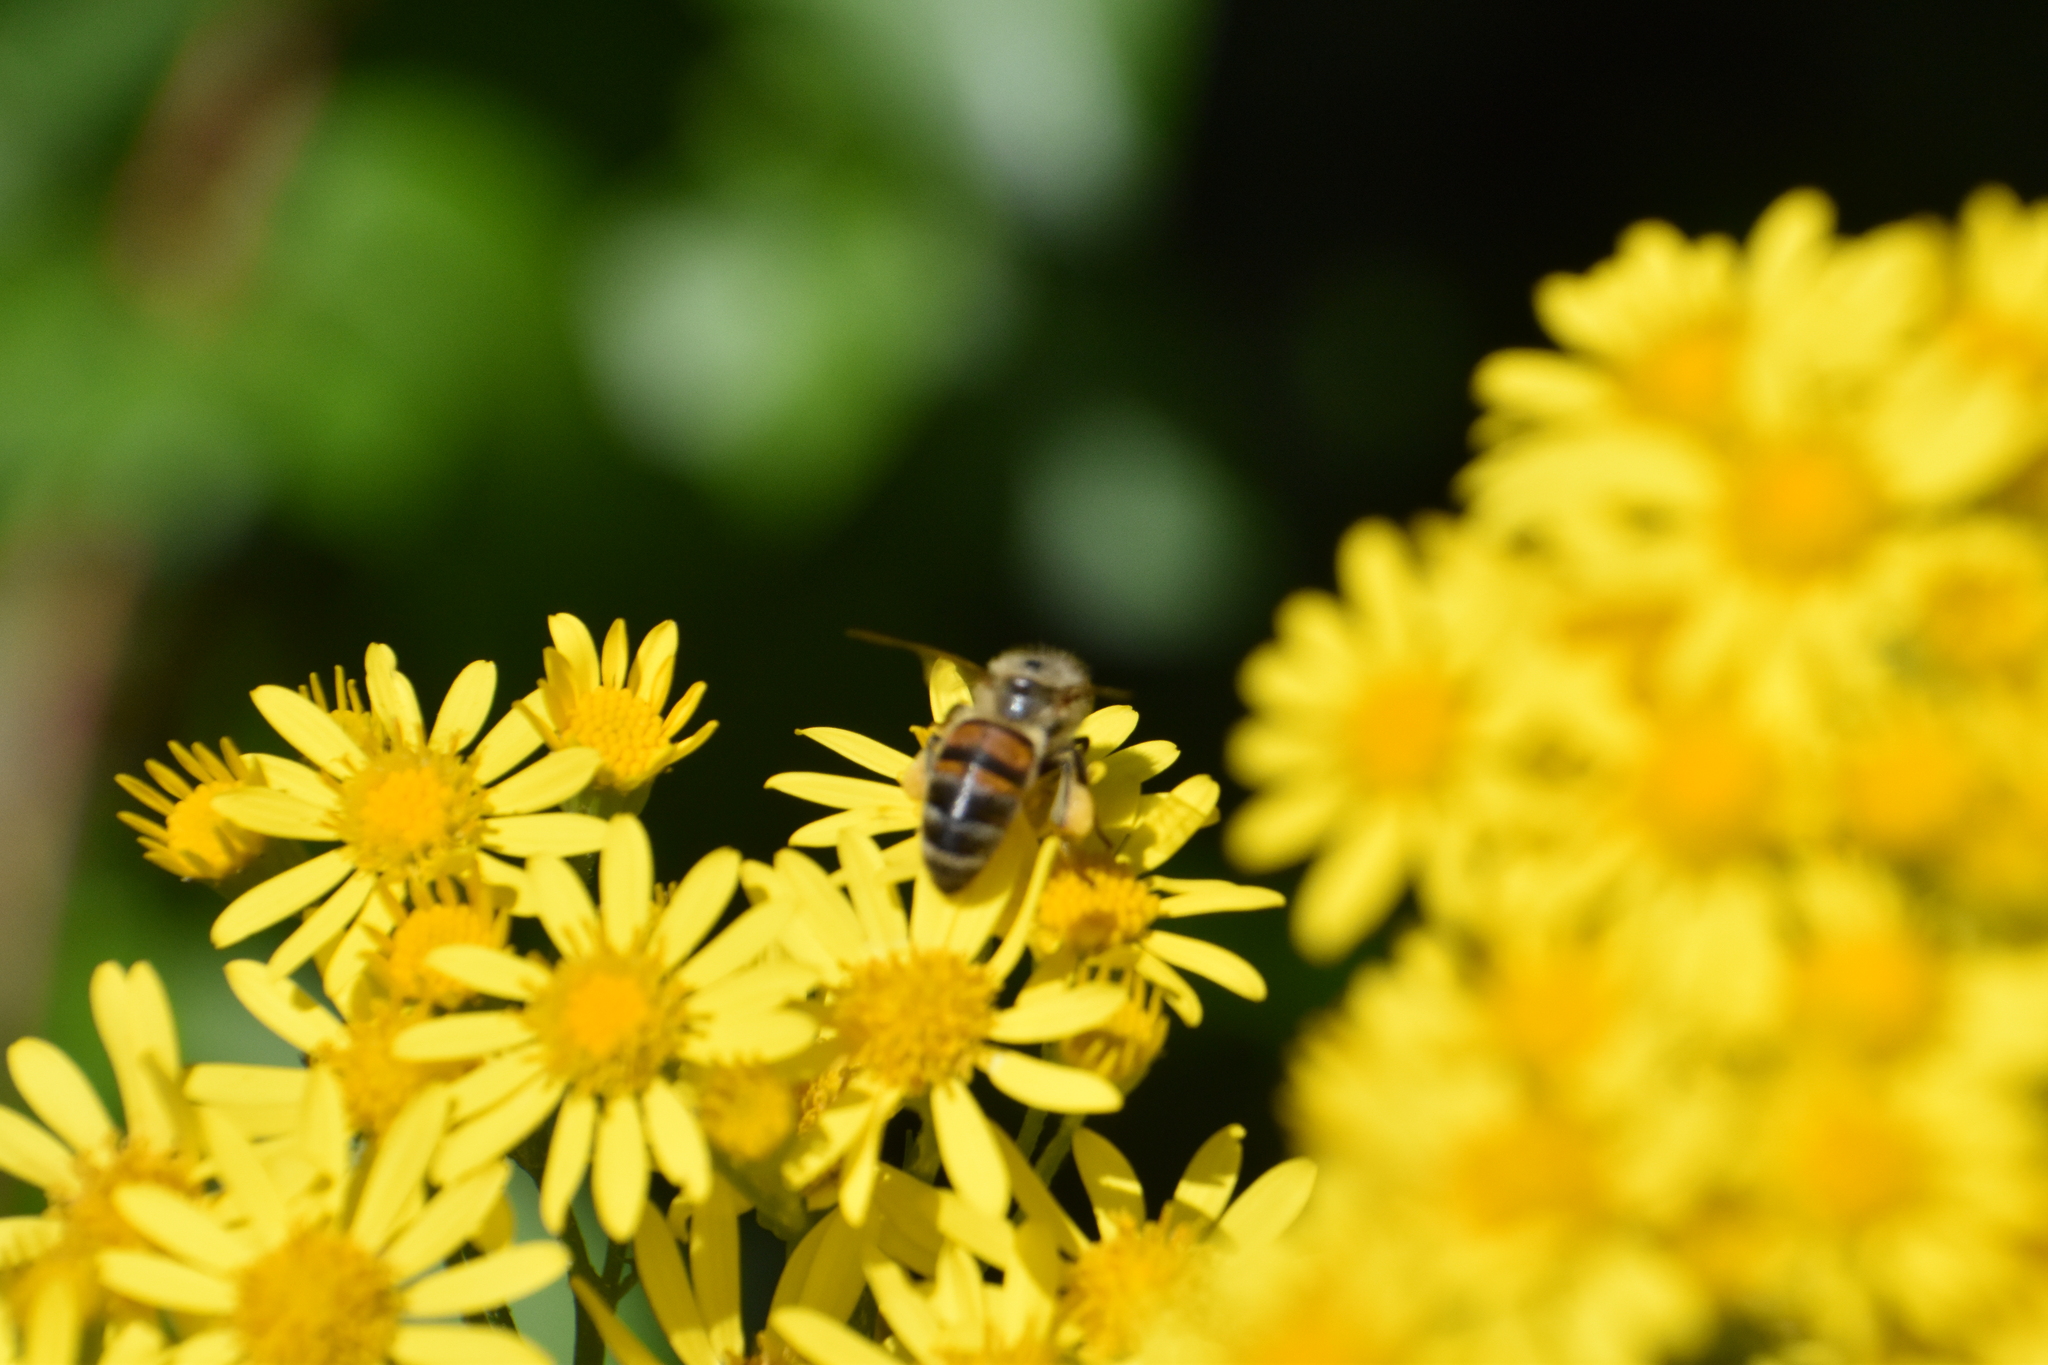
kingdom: Animalia
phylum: Arthropoda
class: Insecta
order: Hymenoptera
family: Apidae
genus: Apis
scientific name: Apis mellifera
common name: Honey bee
